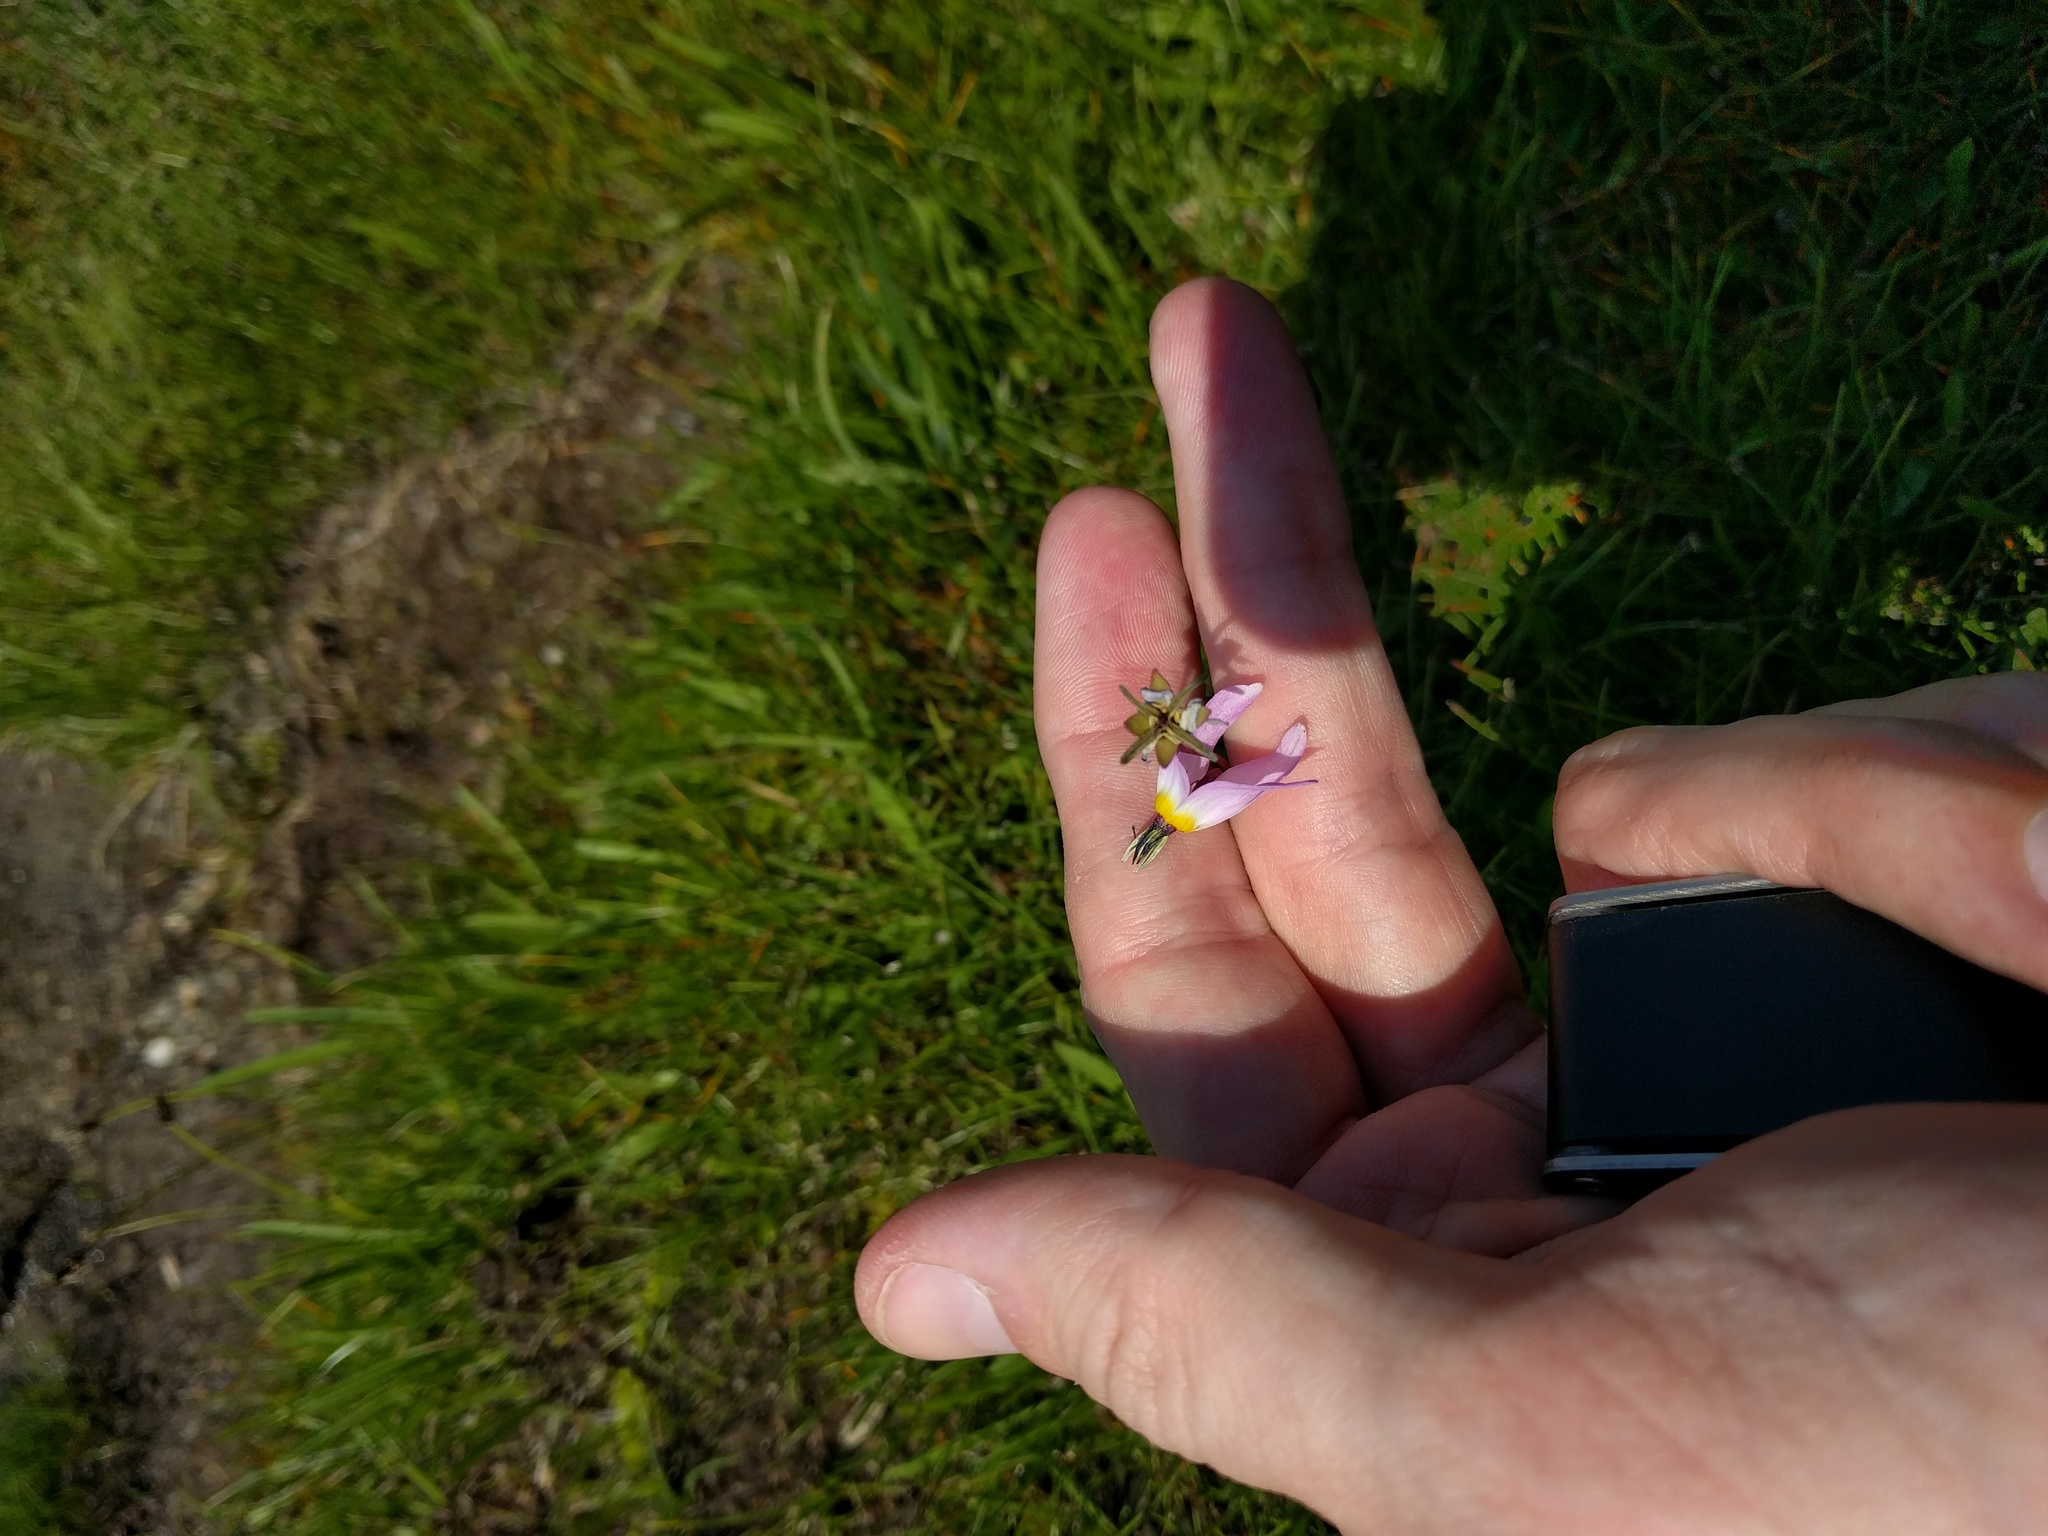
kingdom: Plantae
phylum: Tracheophyta
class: Magnoliopsida
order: Ericales
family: Primulaceae
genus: Dodecatheon
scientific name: Dodecatheon jeffreyanum
